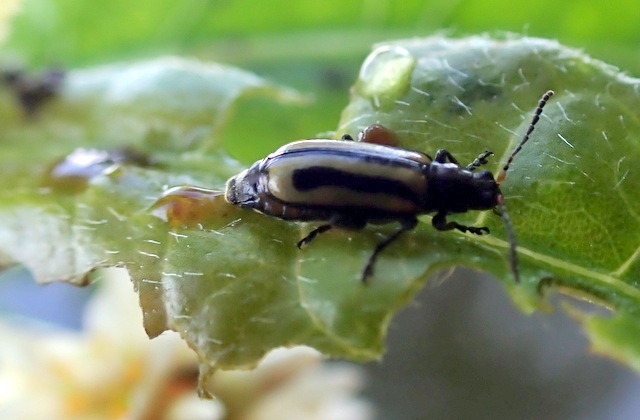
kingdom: Animalia
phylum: Arthropoda
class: Insecta
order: Coleoptera
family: Chrysomelidae
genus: Agasicles
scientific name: Agasicles hygrophila
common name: Alligatorweed flea beetle
